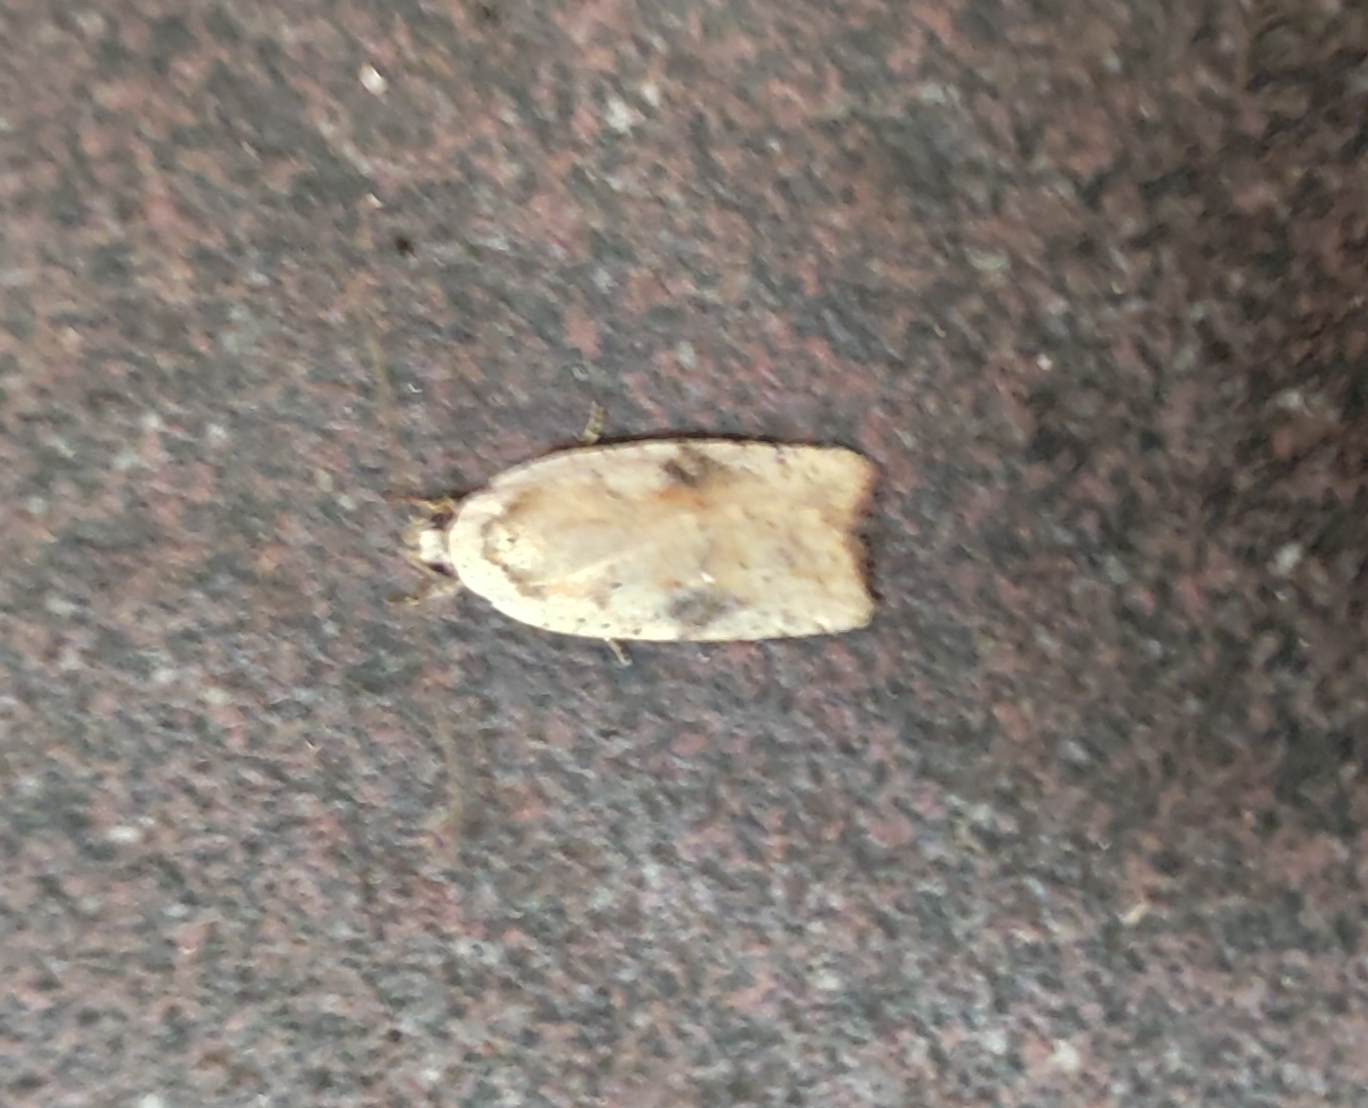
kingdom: Animalia
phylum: Arthropoda
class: Insecta
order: Lepidoptera
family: Depressariidae
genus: Agonopterix
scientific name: Agonopterix nervosa
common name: Gorse tip moth
